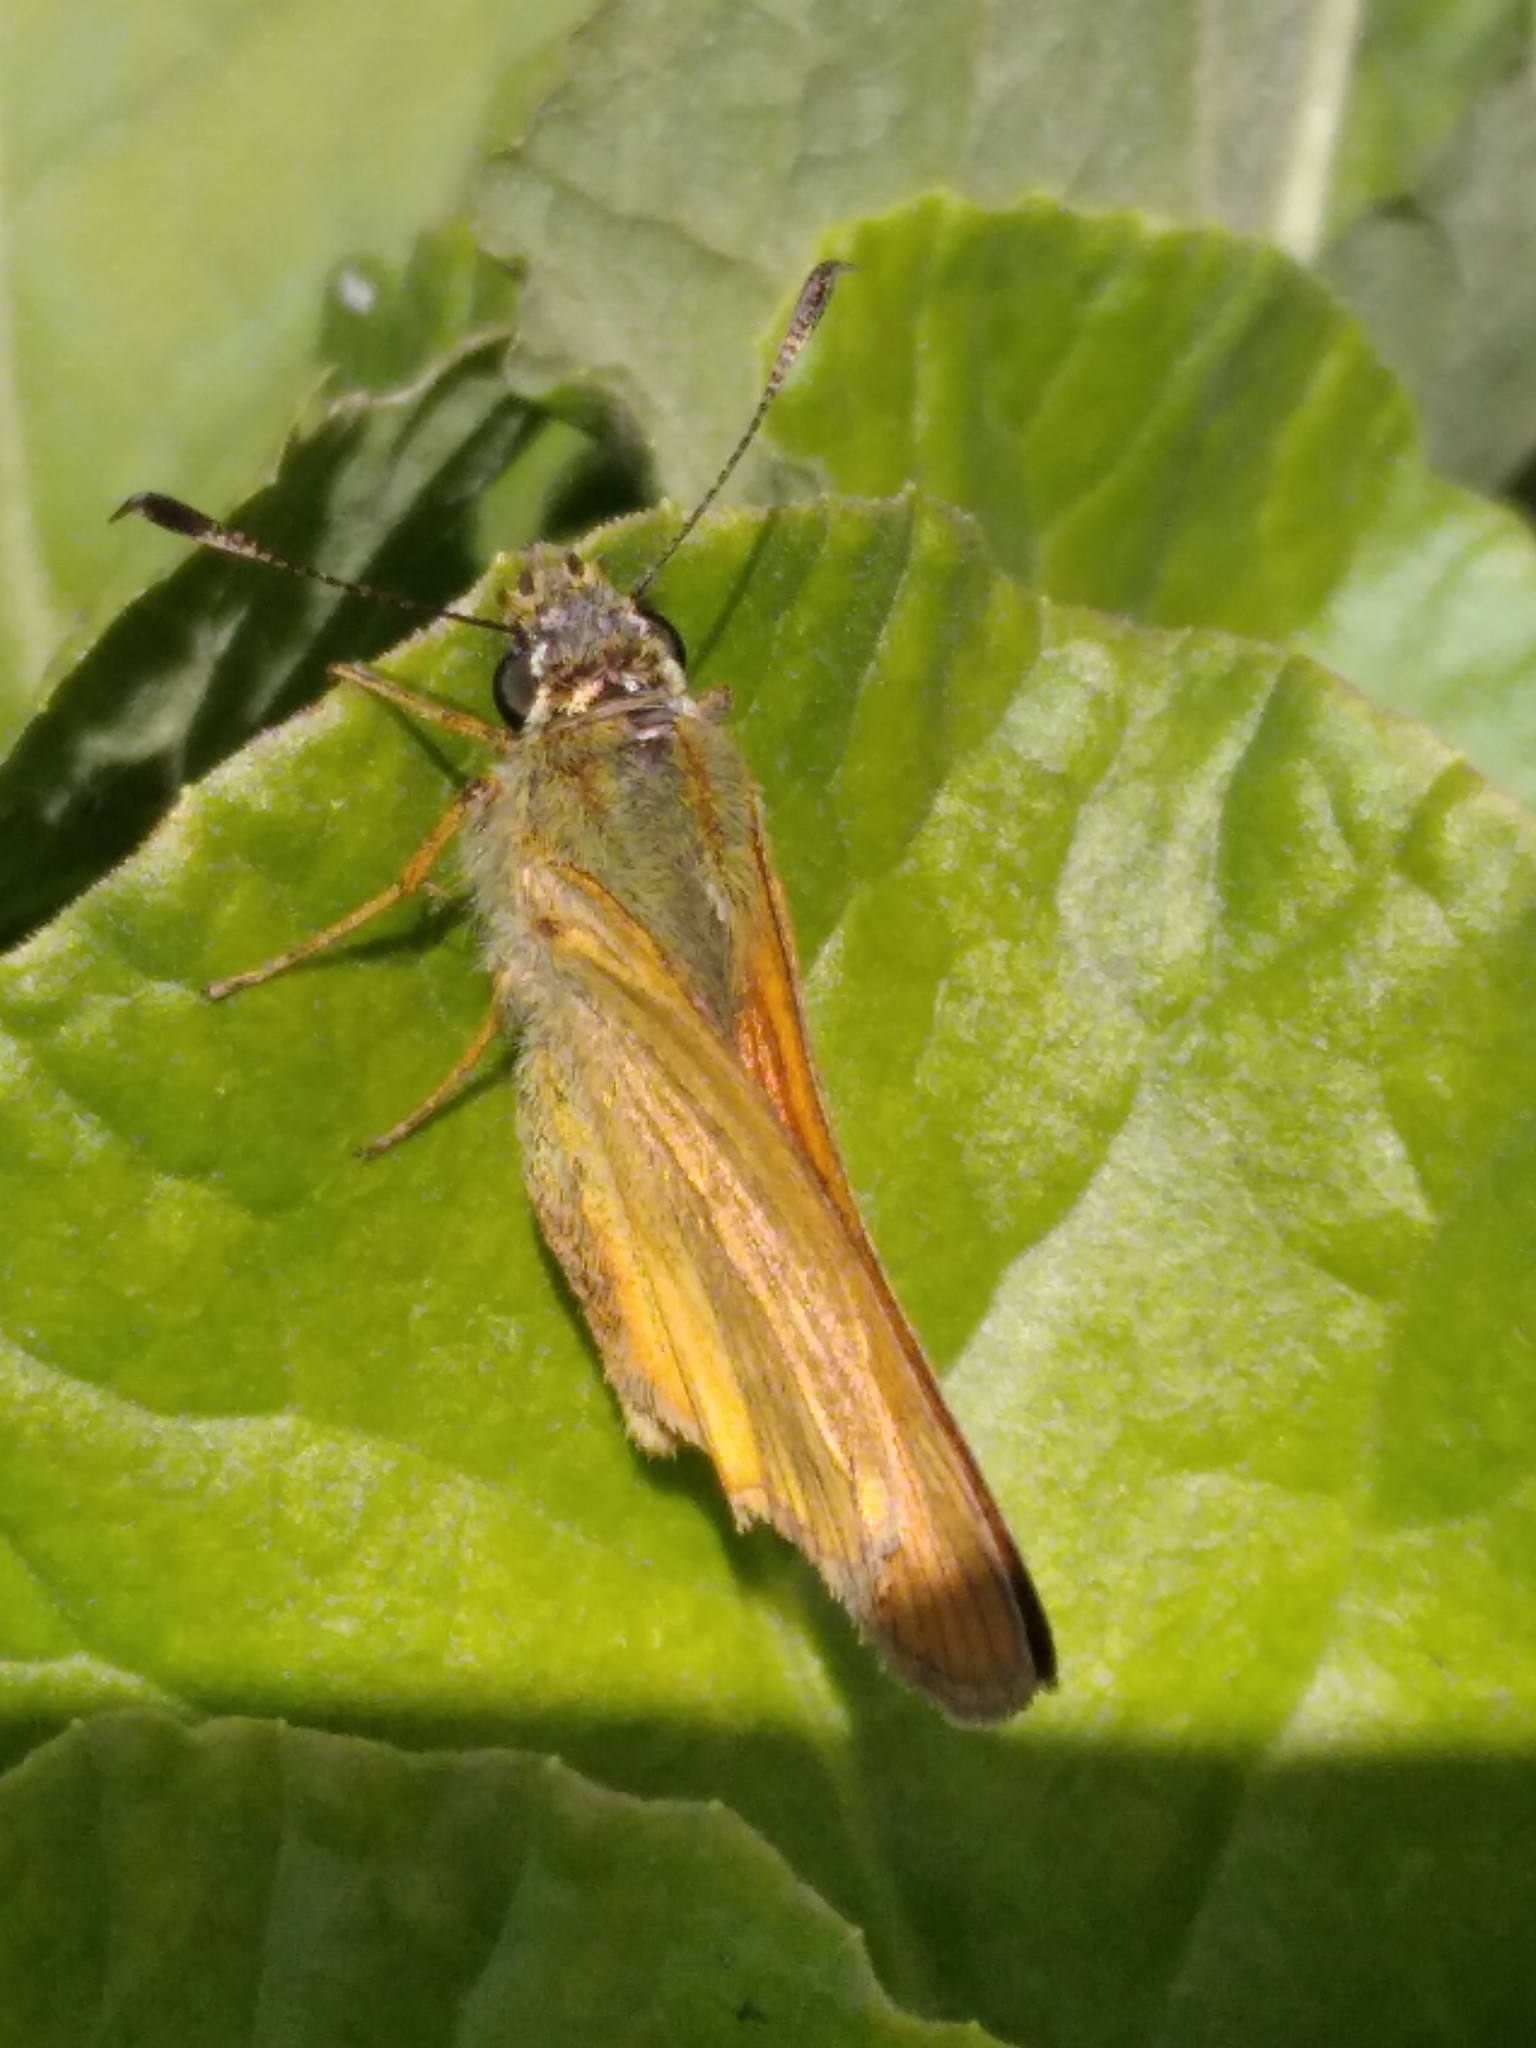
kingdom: Animalia
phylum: Arthropoda
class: Insecta
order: Lepidoptera
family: Hesperiidae
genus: Ochlodes
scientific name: Ochlodes venata
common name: Large skipper
